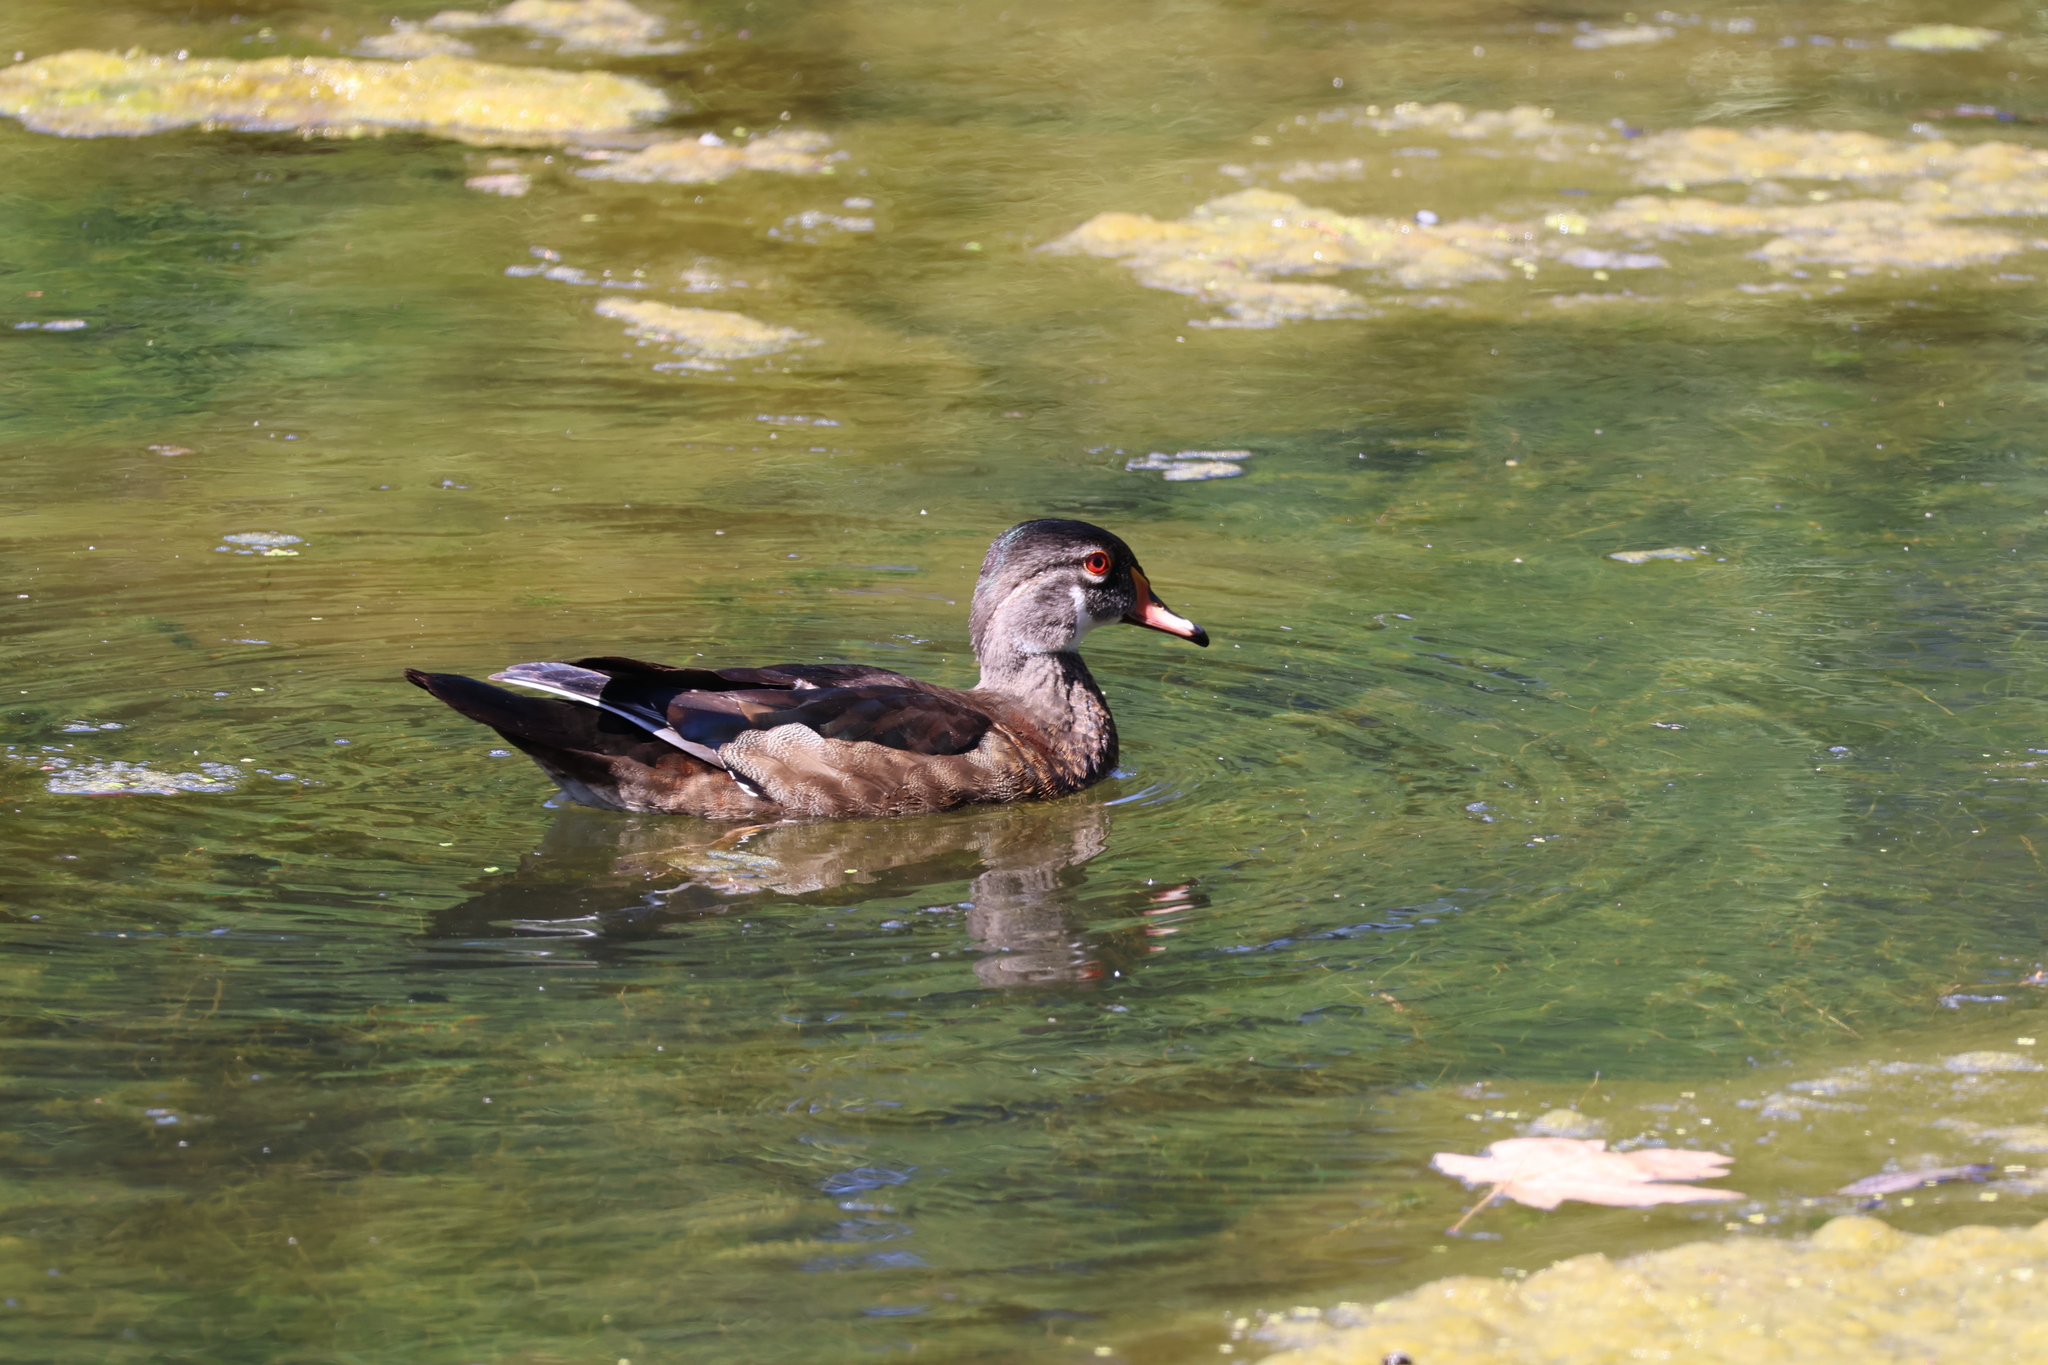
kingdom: Animalia
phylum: Chordata
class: Aves
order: Anseriformes
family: Anatidae
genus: Aix
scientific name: Aix sponsa
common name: Wood duck
